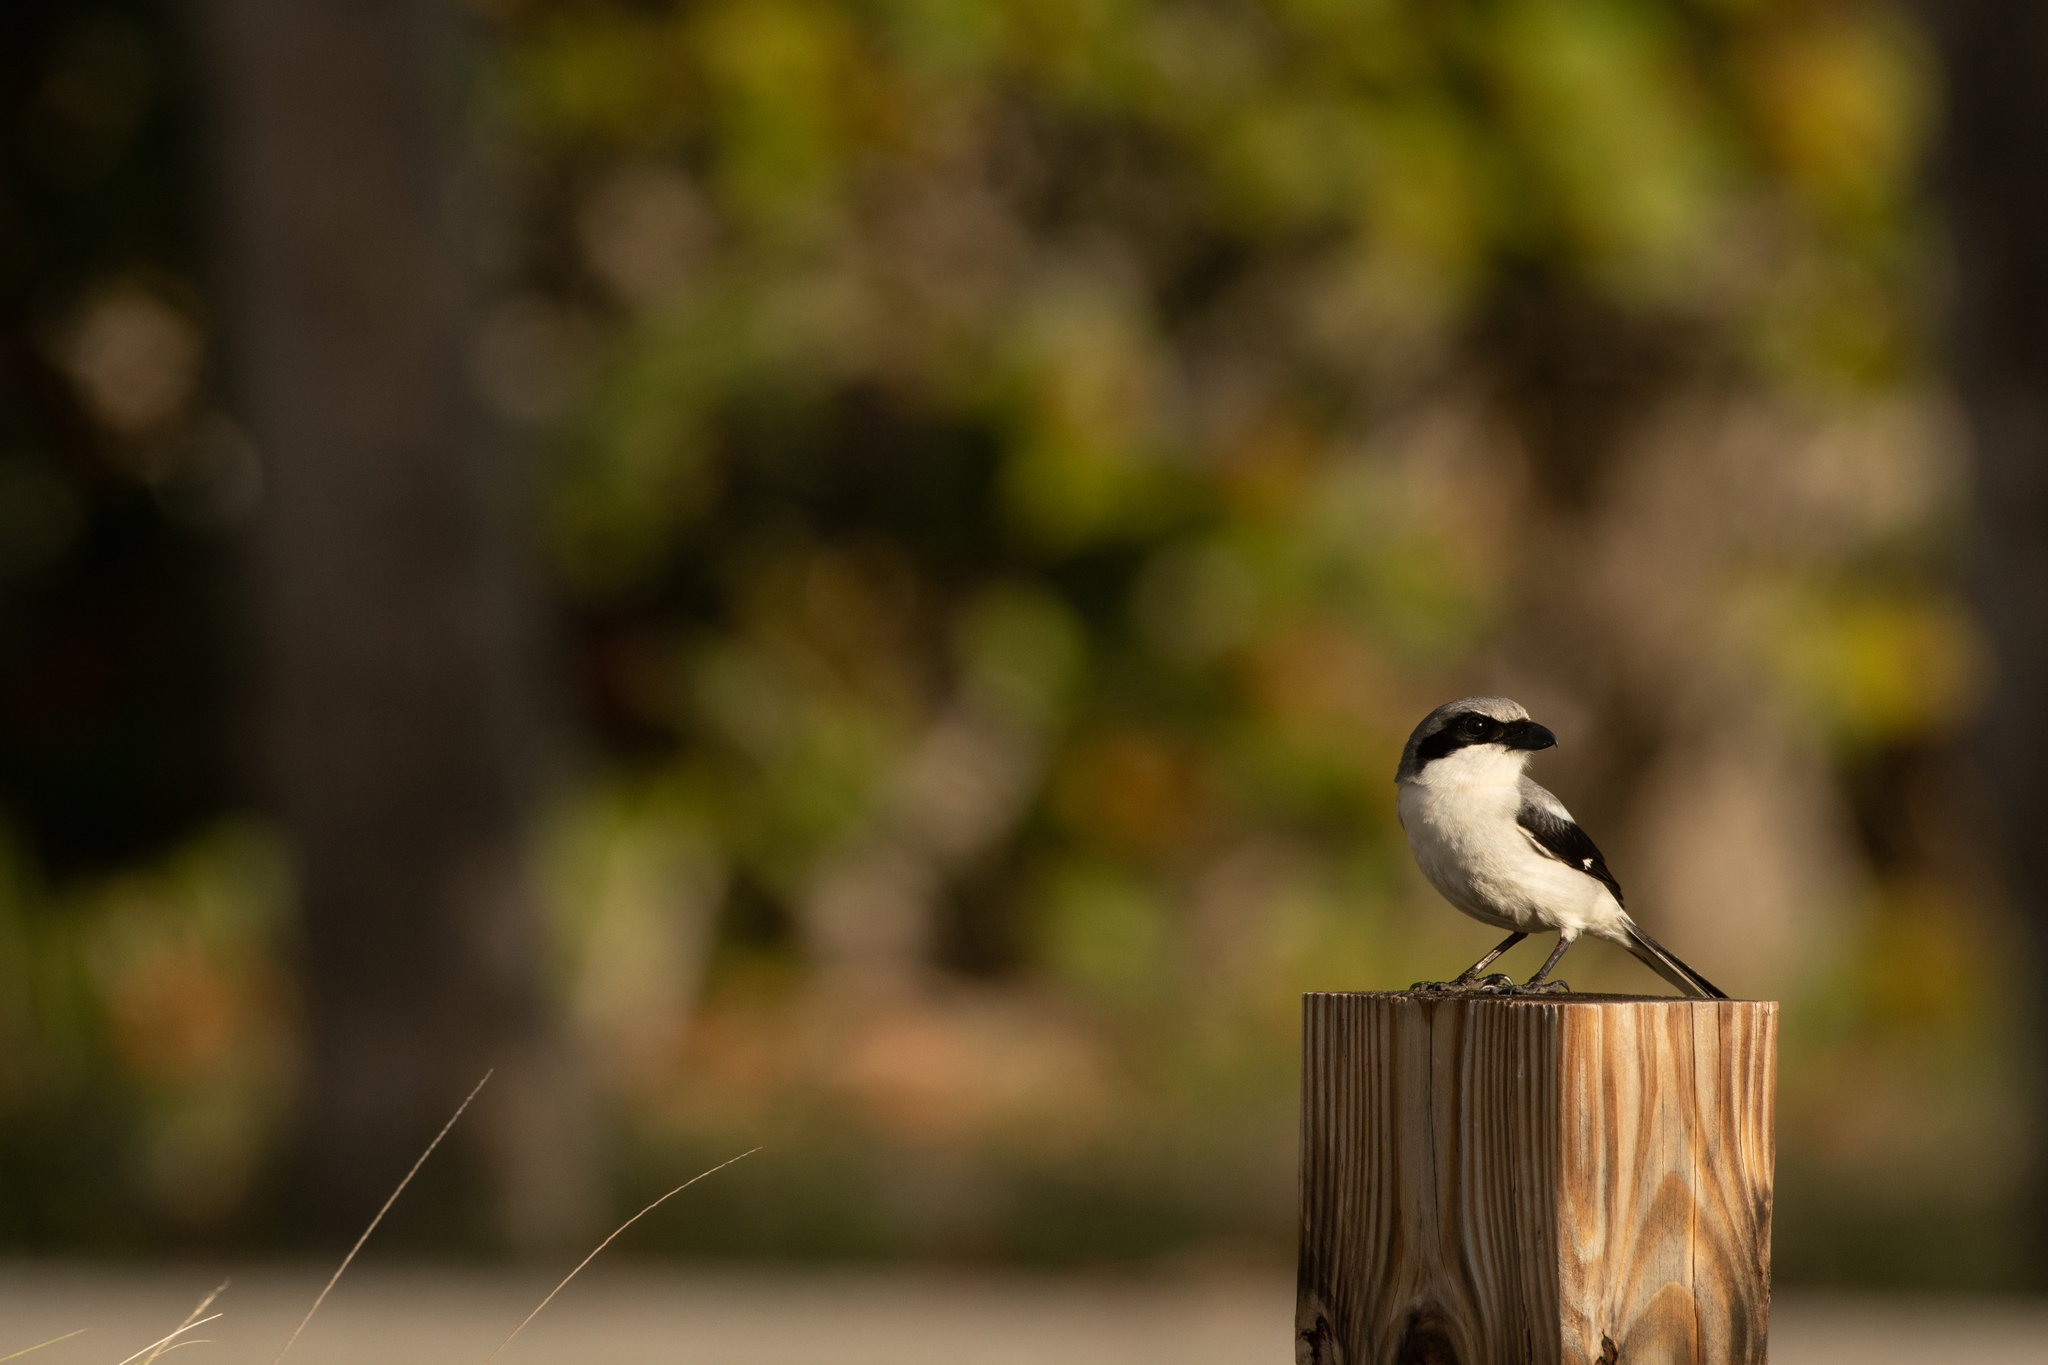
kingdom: Animalia
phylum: Chordata
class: Aves
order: Passeriformes
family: Laniidae
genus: Lanius
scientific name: Lanius ludovicianus
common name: Loggerhead shrike
